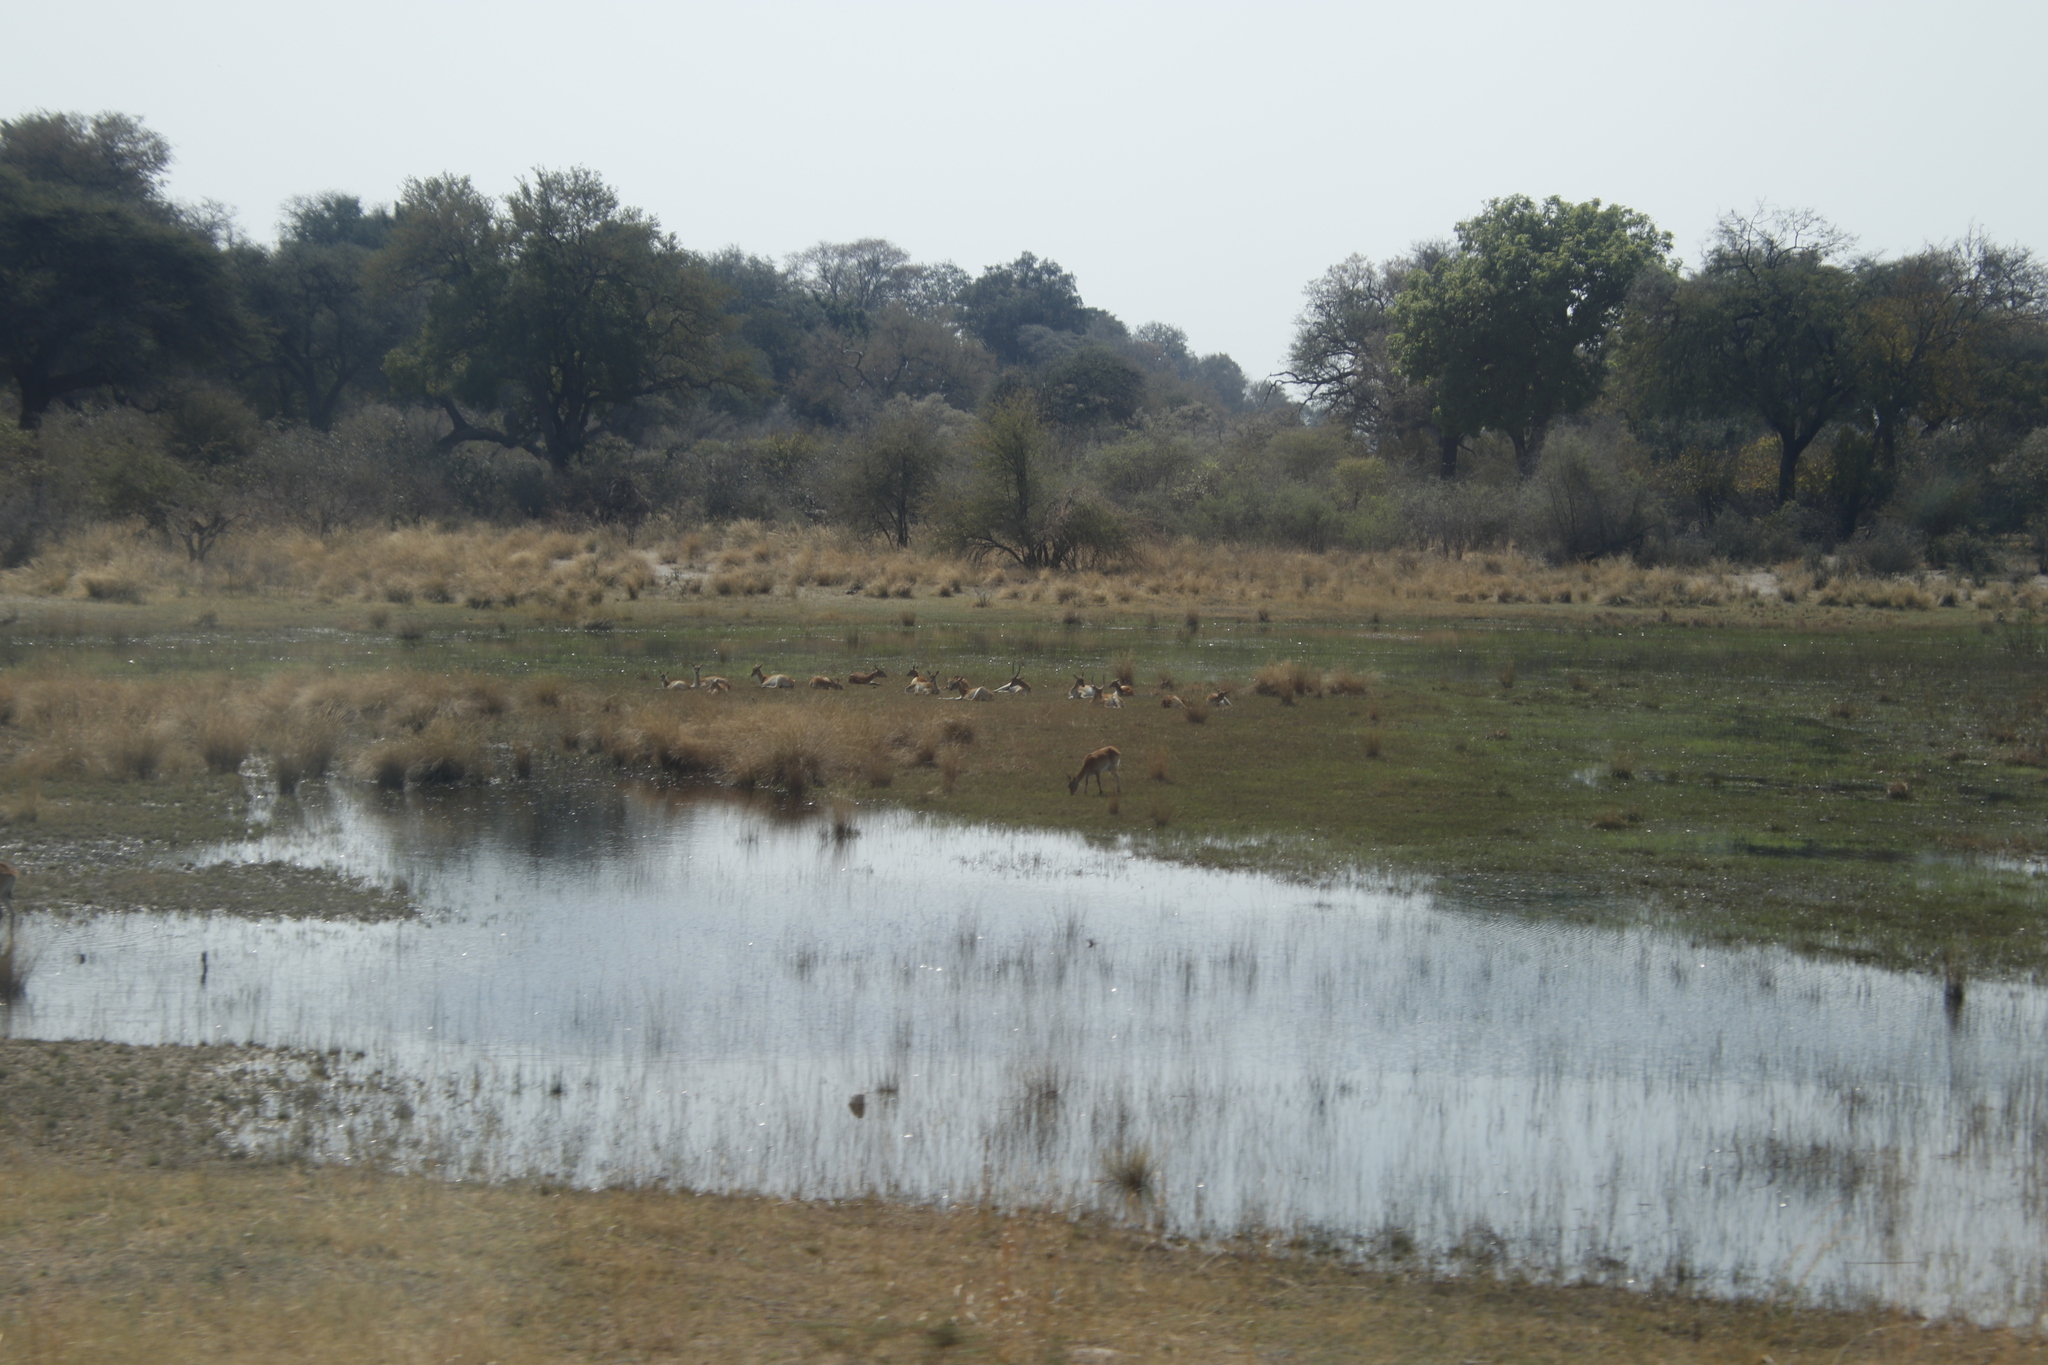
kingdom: Animalia
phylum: Chordata
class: Mammalia
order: Artiodactyla
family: Bovidae
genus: Kobus
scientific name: Kobus leche
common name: Lechwe
